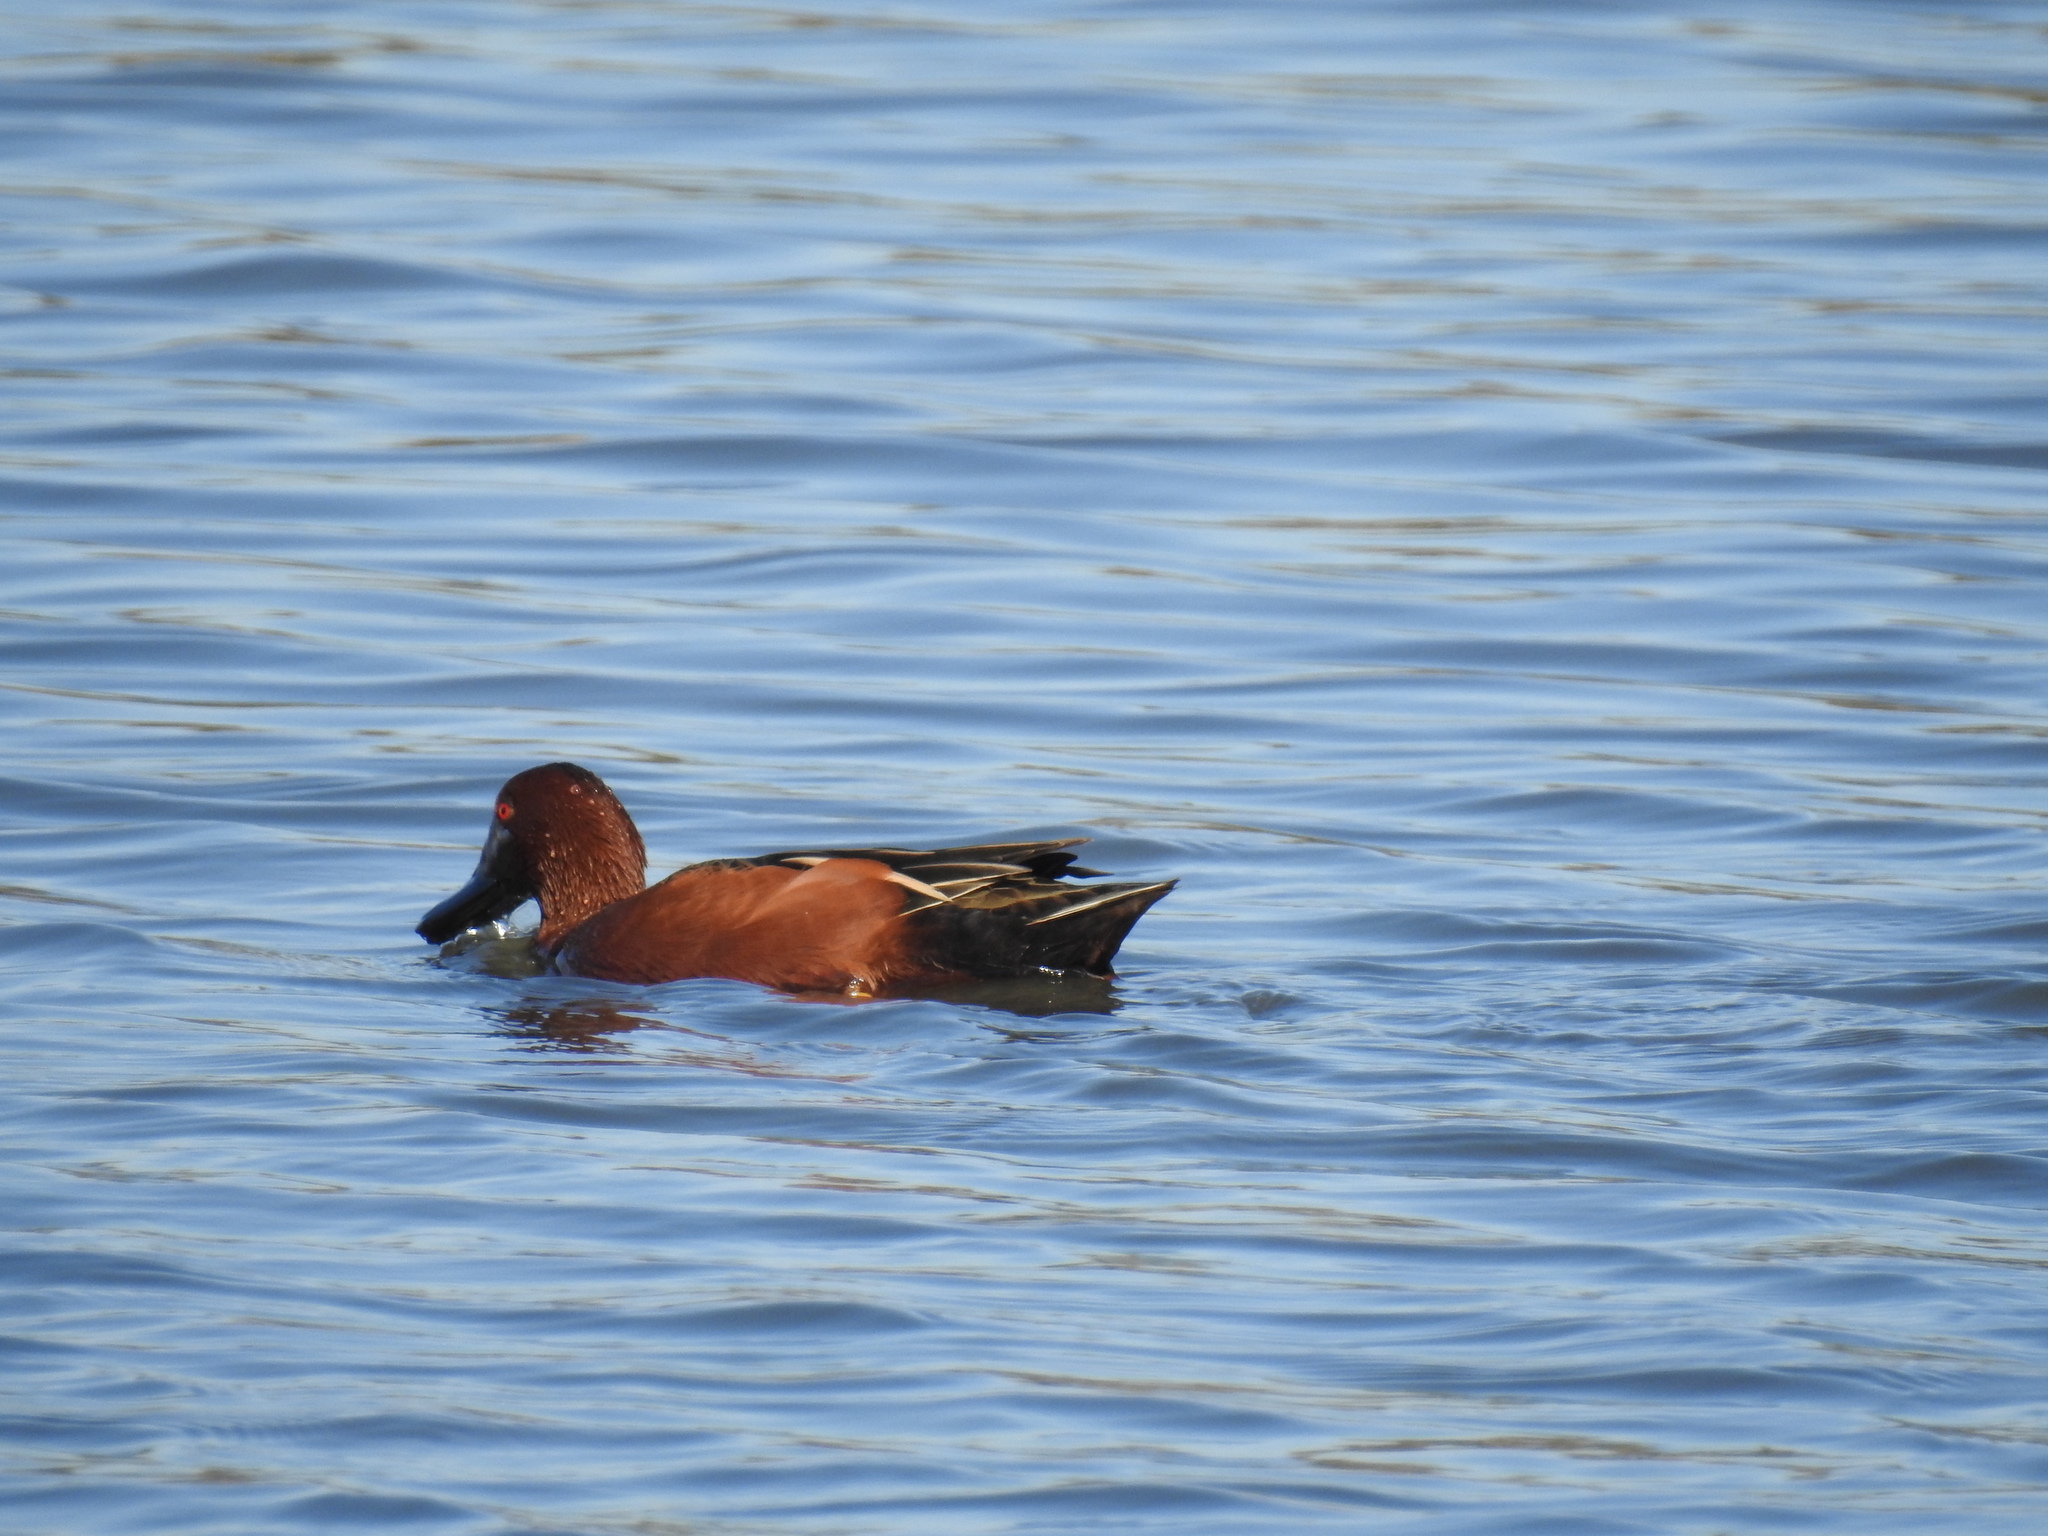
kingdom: Animalia
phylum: Chordata
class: Aves
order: Anseriformes
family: Anatidae
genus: Spatula
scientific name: Spatula cyanoptera
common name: Cinnamon teal
